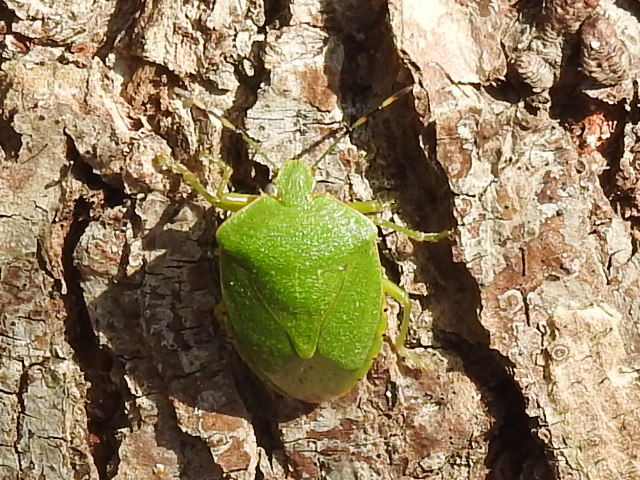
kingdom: Animalia
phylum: Arthropoda
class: Insecta
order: Hemiptera
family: Pentatomidae
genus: Chinavia
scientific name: Chinavia hilaris
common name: Green stink bug
